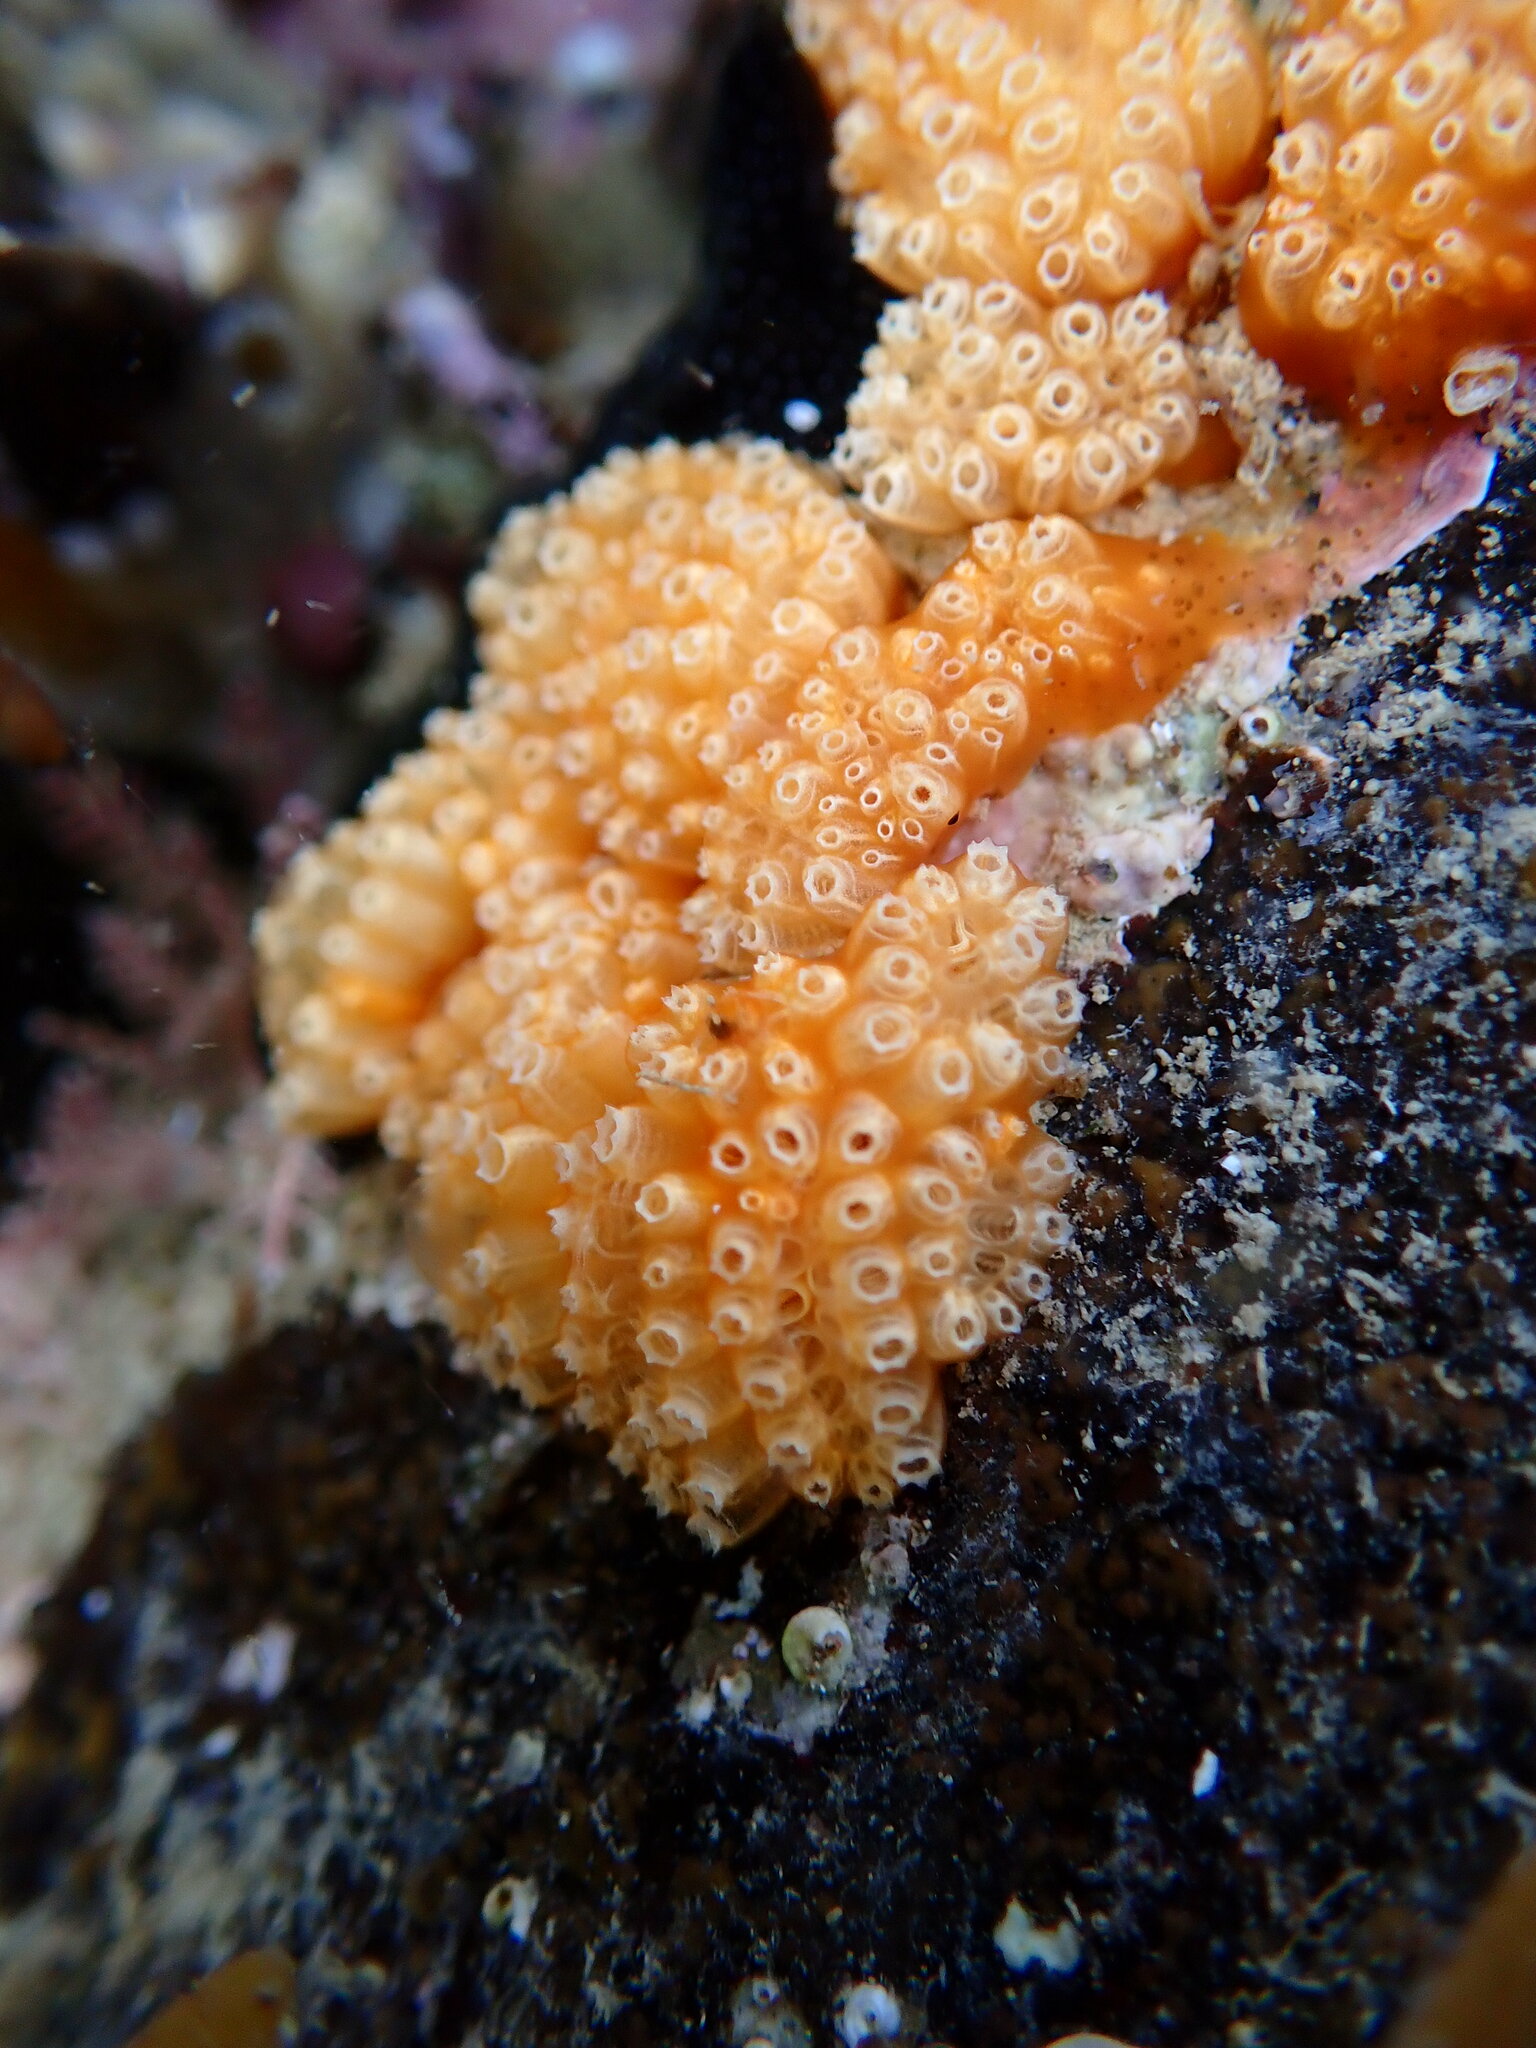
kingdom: Animalia
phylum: Chordata
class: Ascidiacea
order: Aplousobranchia
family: Polyclinidae
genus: Aplidium
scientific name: Aplidium benhami
